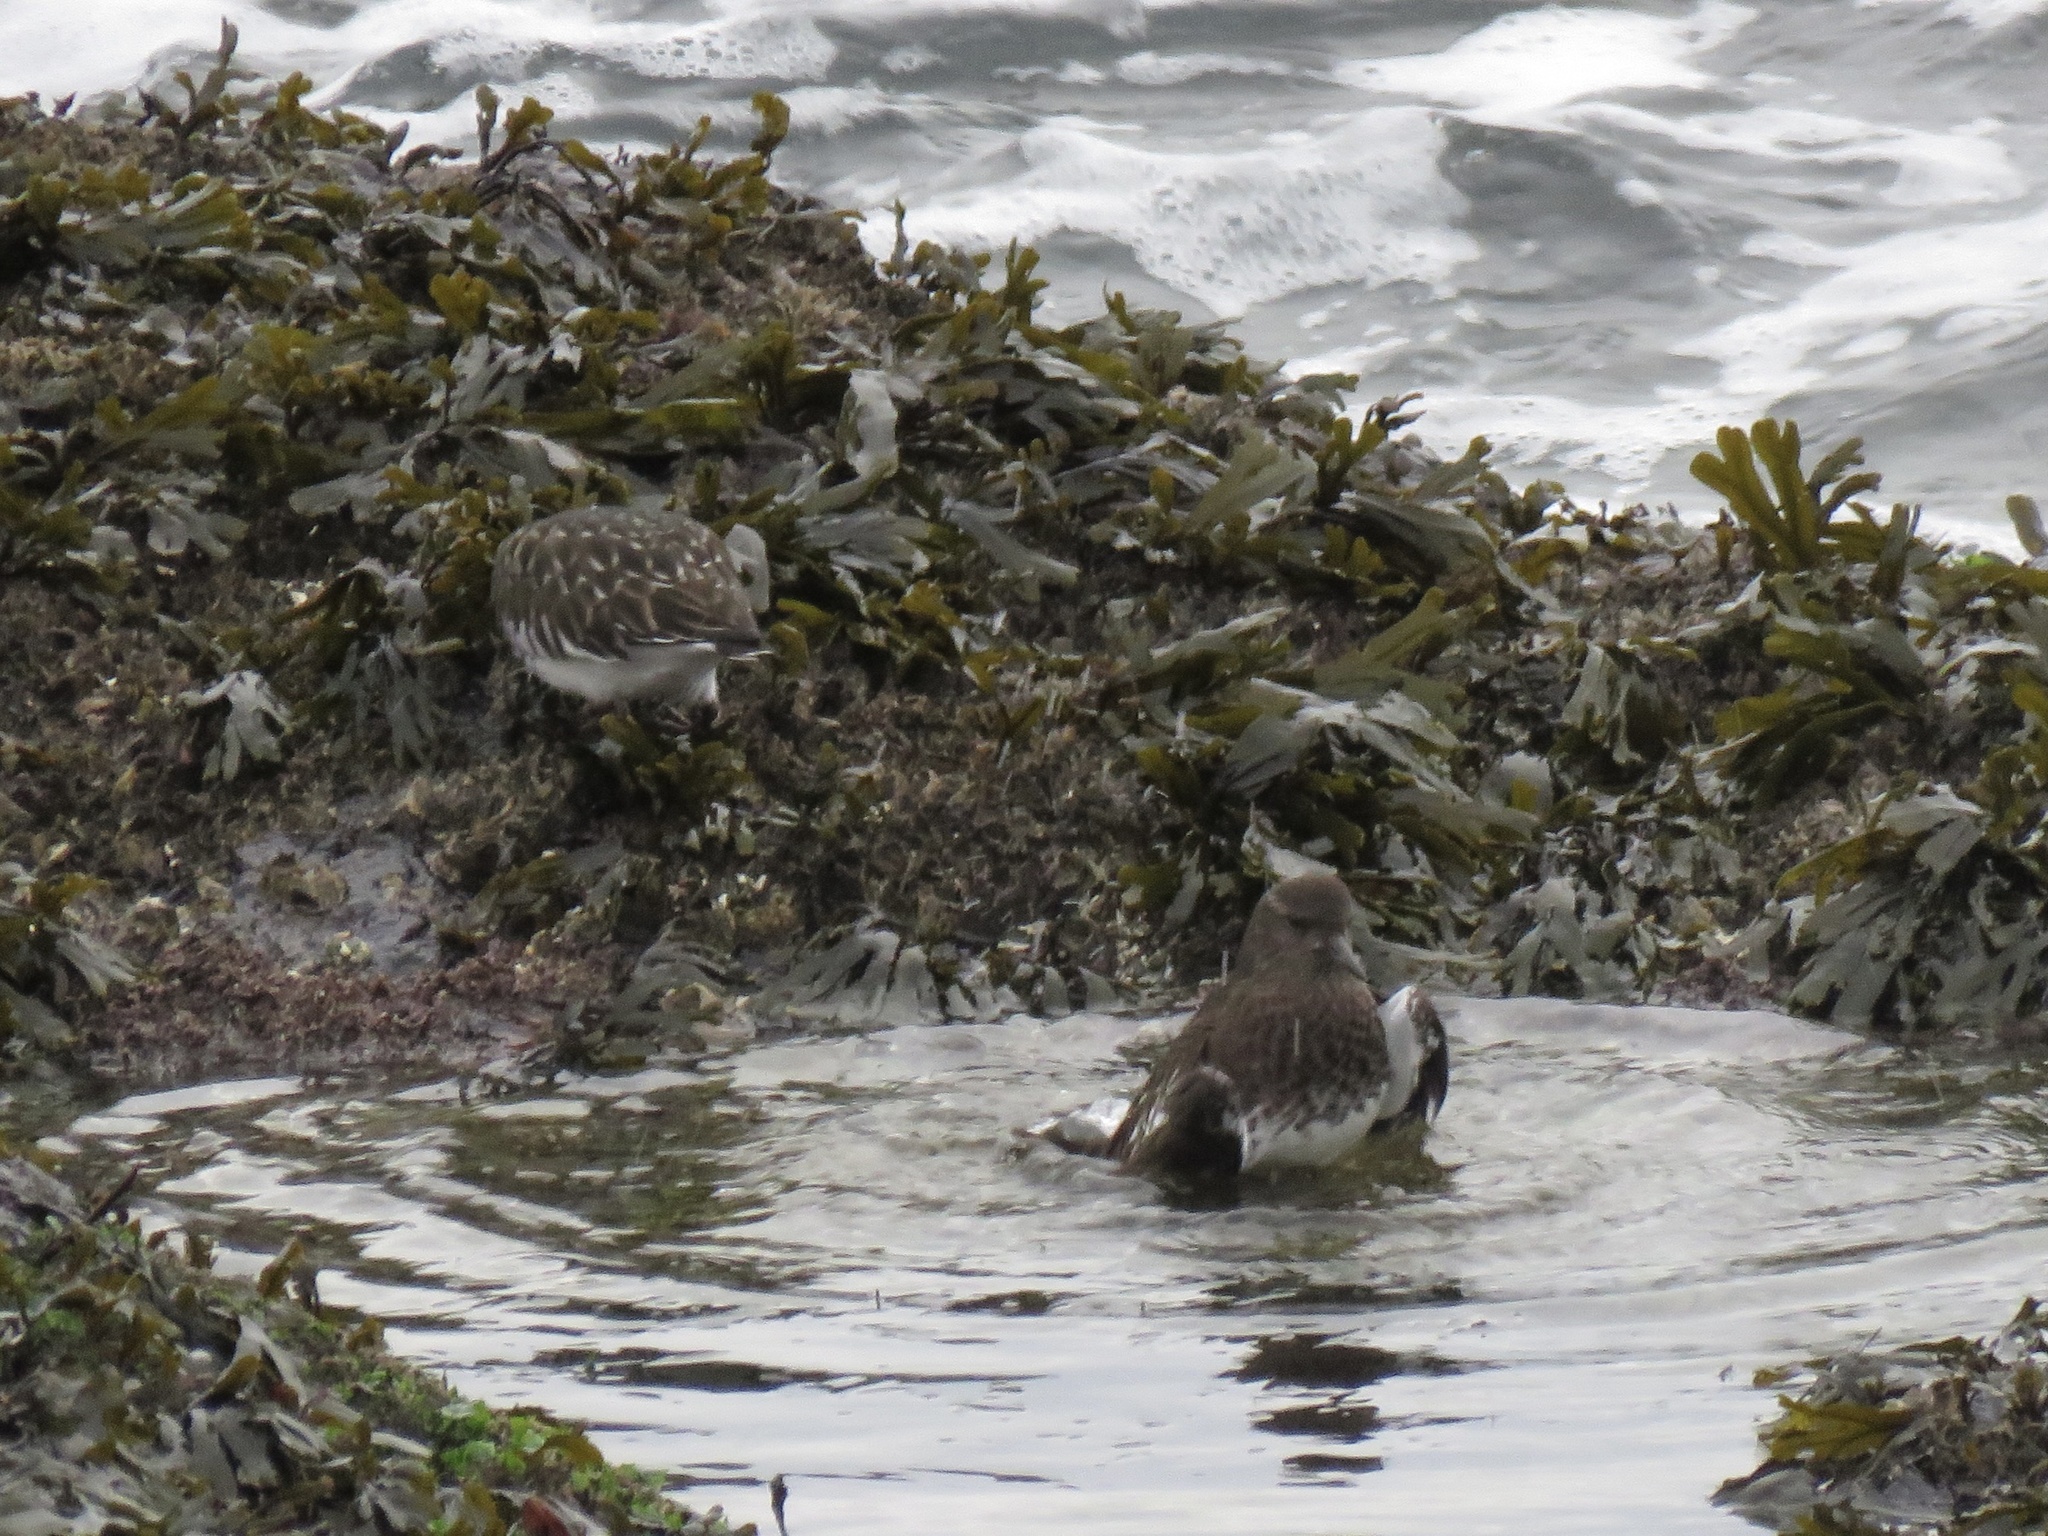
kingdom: Animalia
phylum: Chordata
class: Aves
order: Charadriiformes
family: Scolopacidae
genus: Arenaria
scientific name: Arenaria melanocephala
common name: Black turnstone
